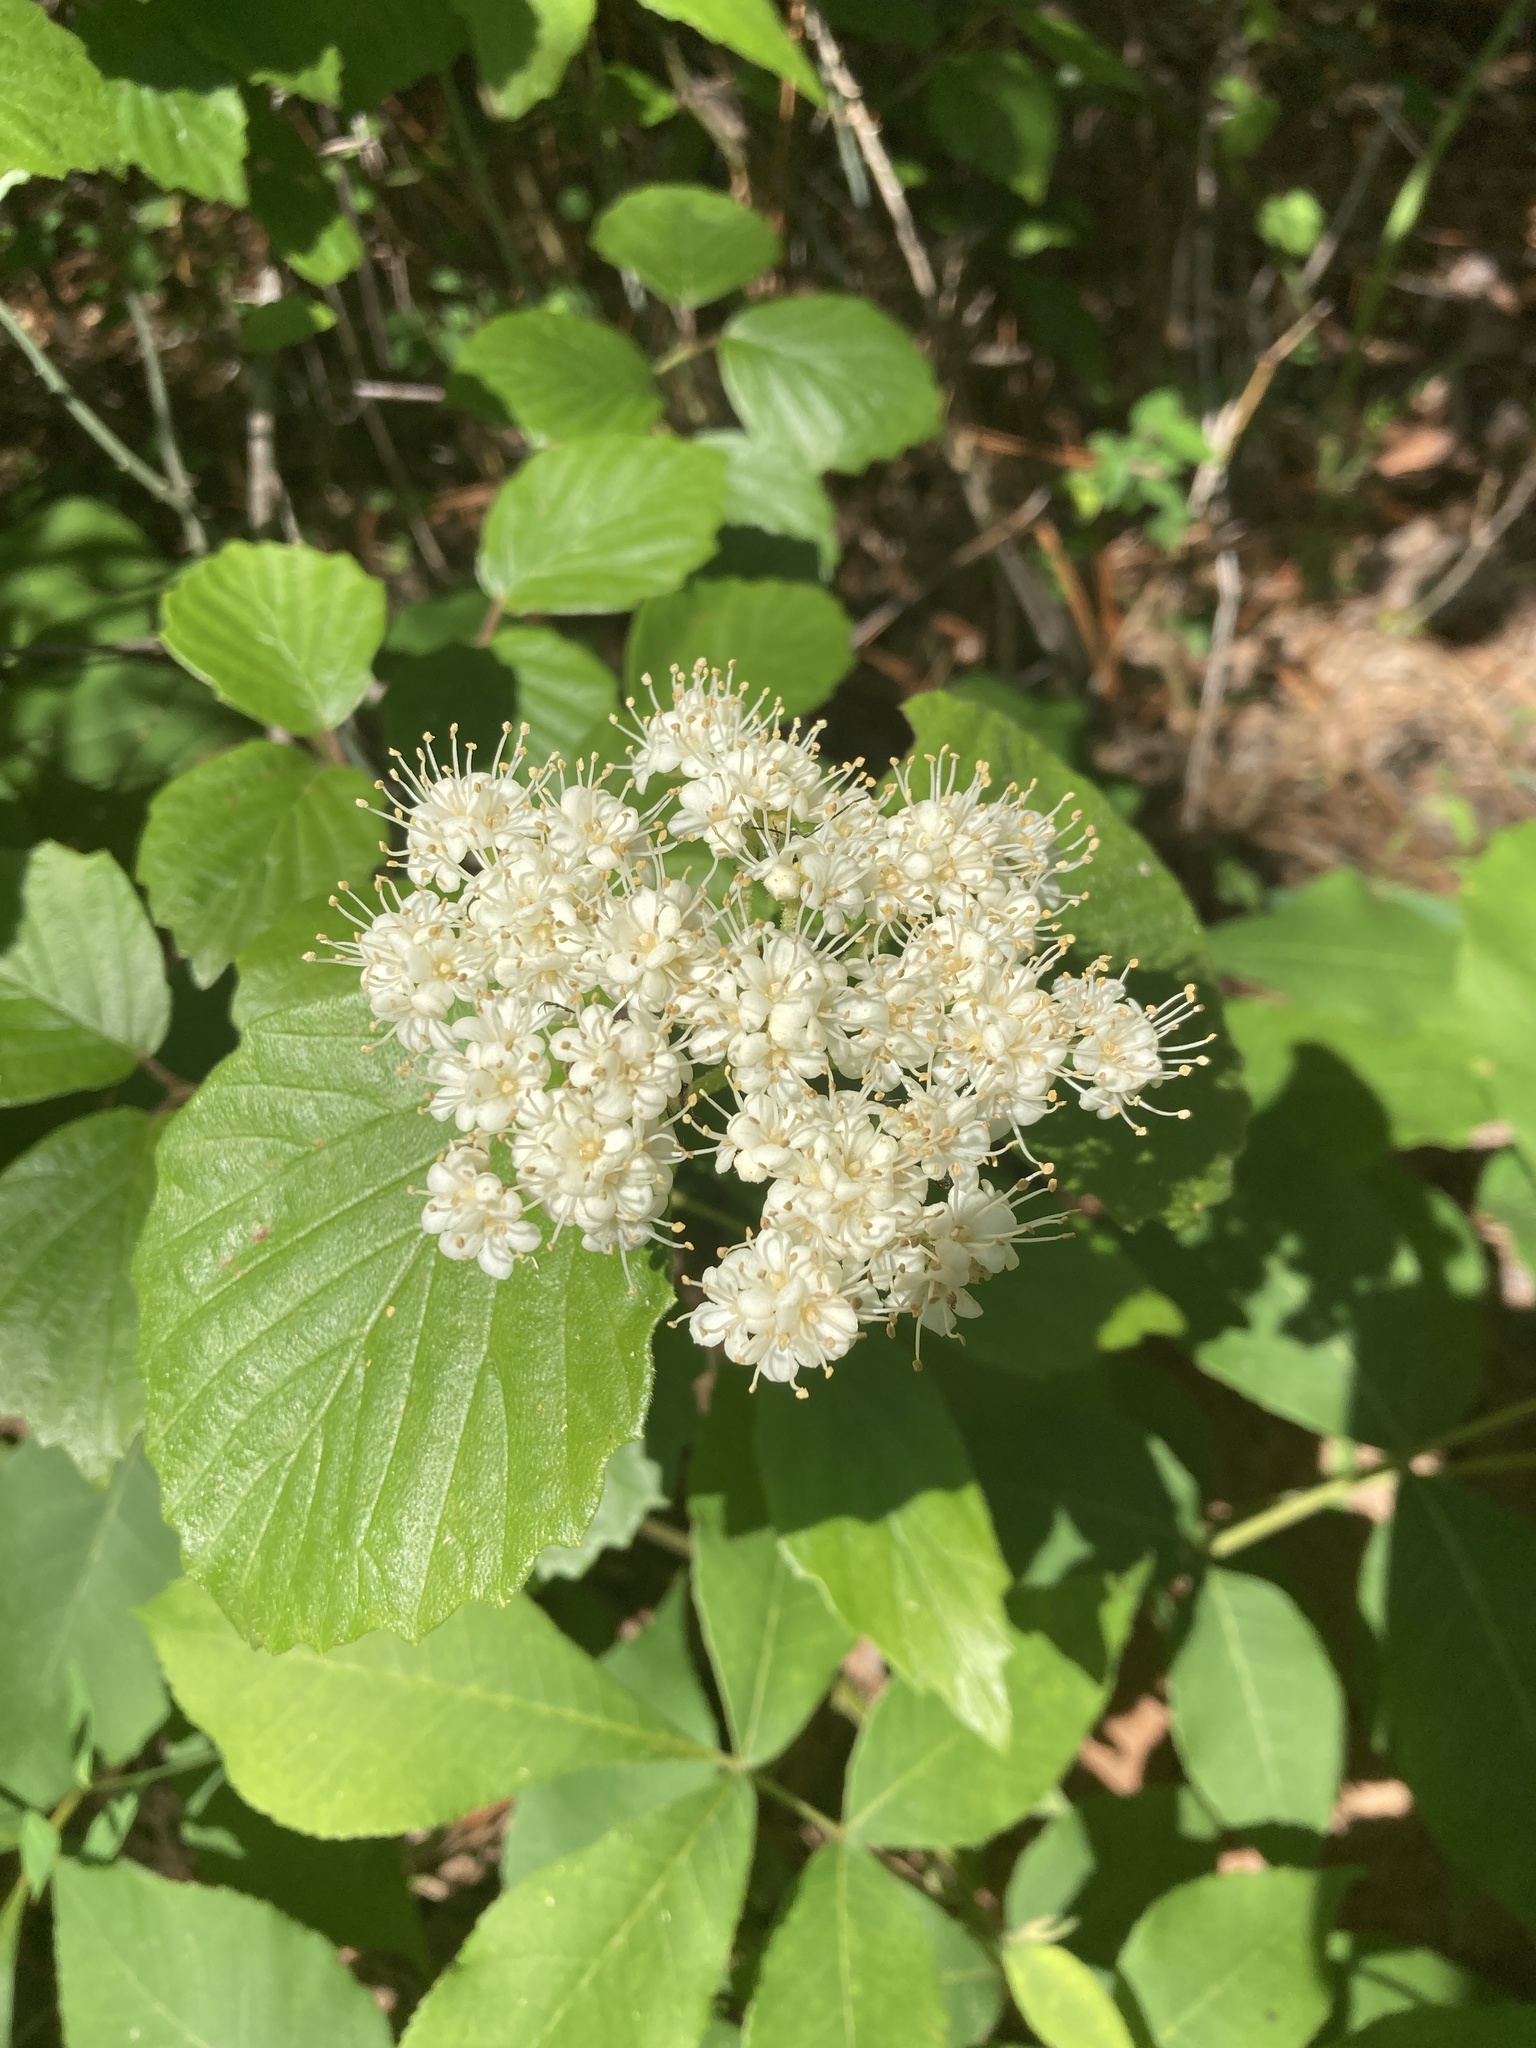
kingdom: Plantae
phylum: Tracheophyta
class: Magnoliopsida
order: Dipsacales
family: Viburnaceae
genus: Viburnum
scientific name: Viburnum scabrellum
